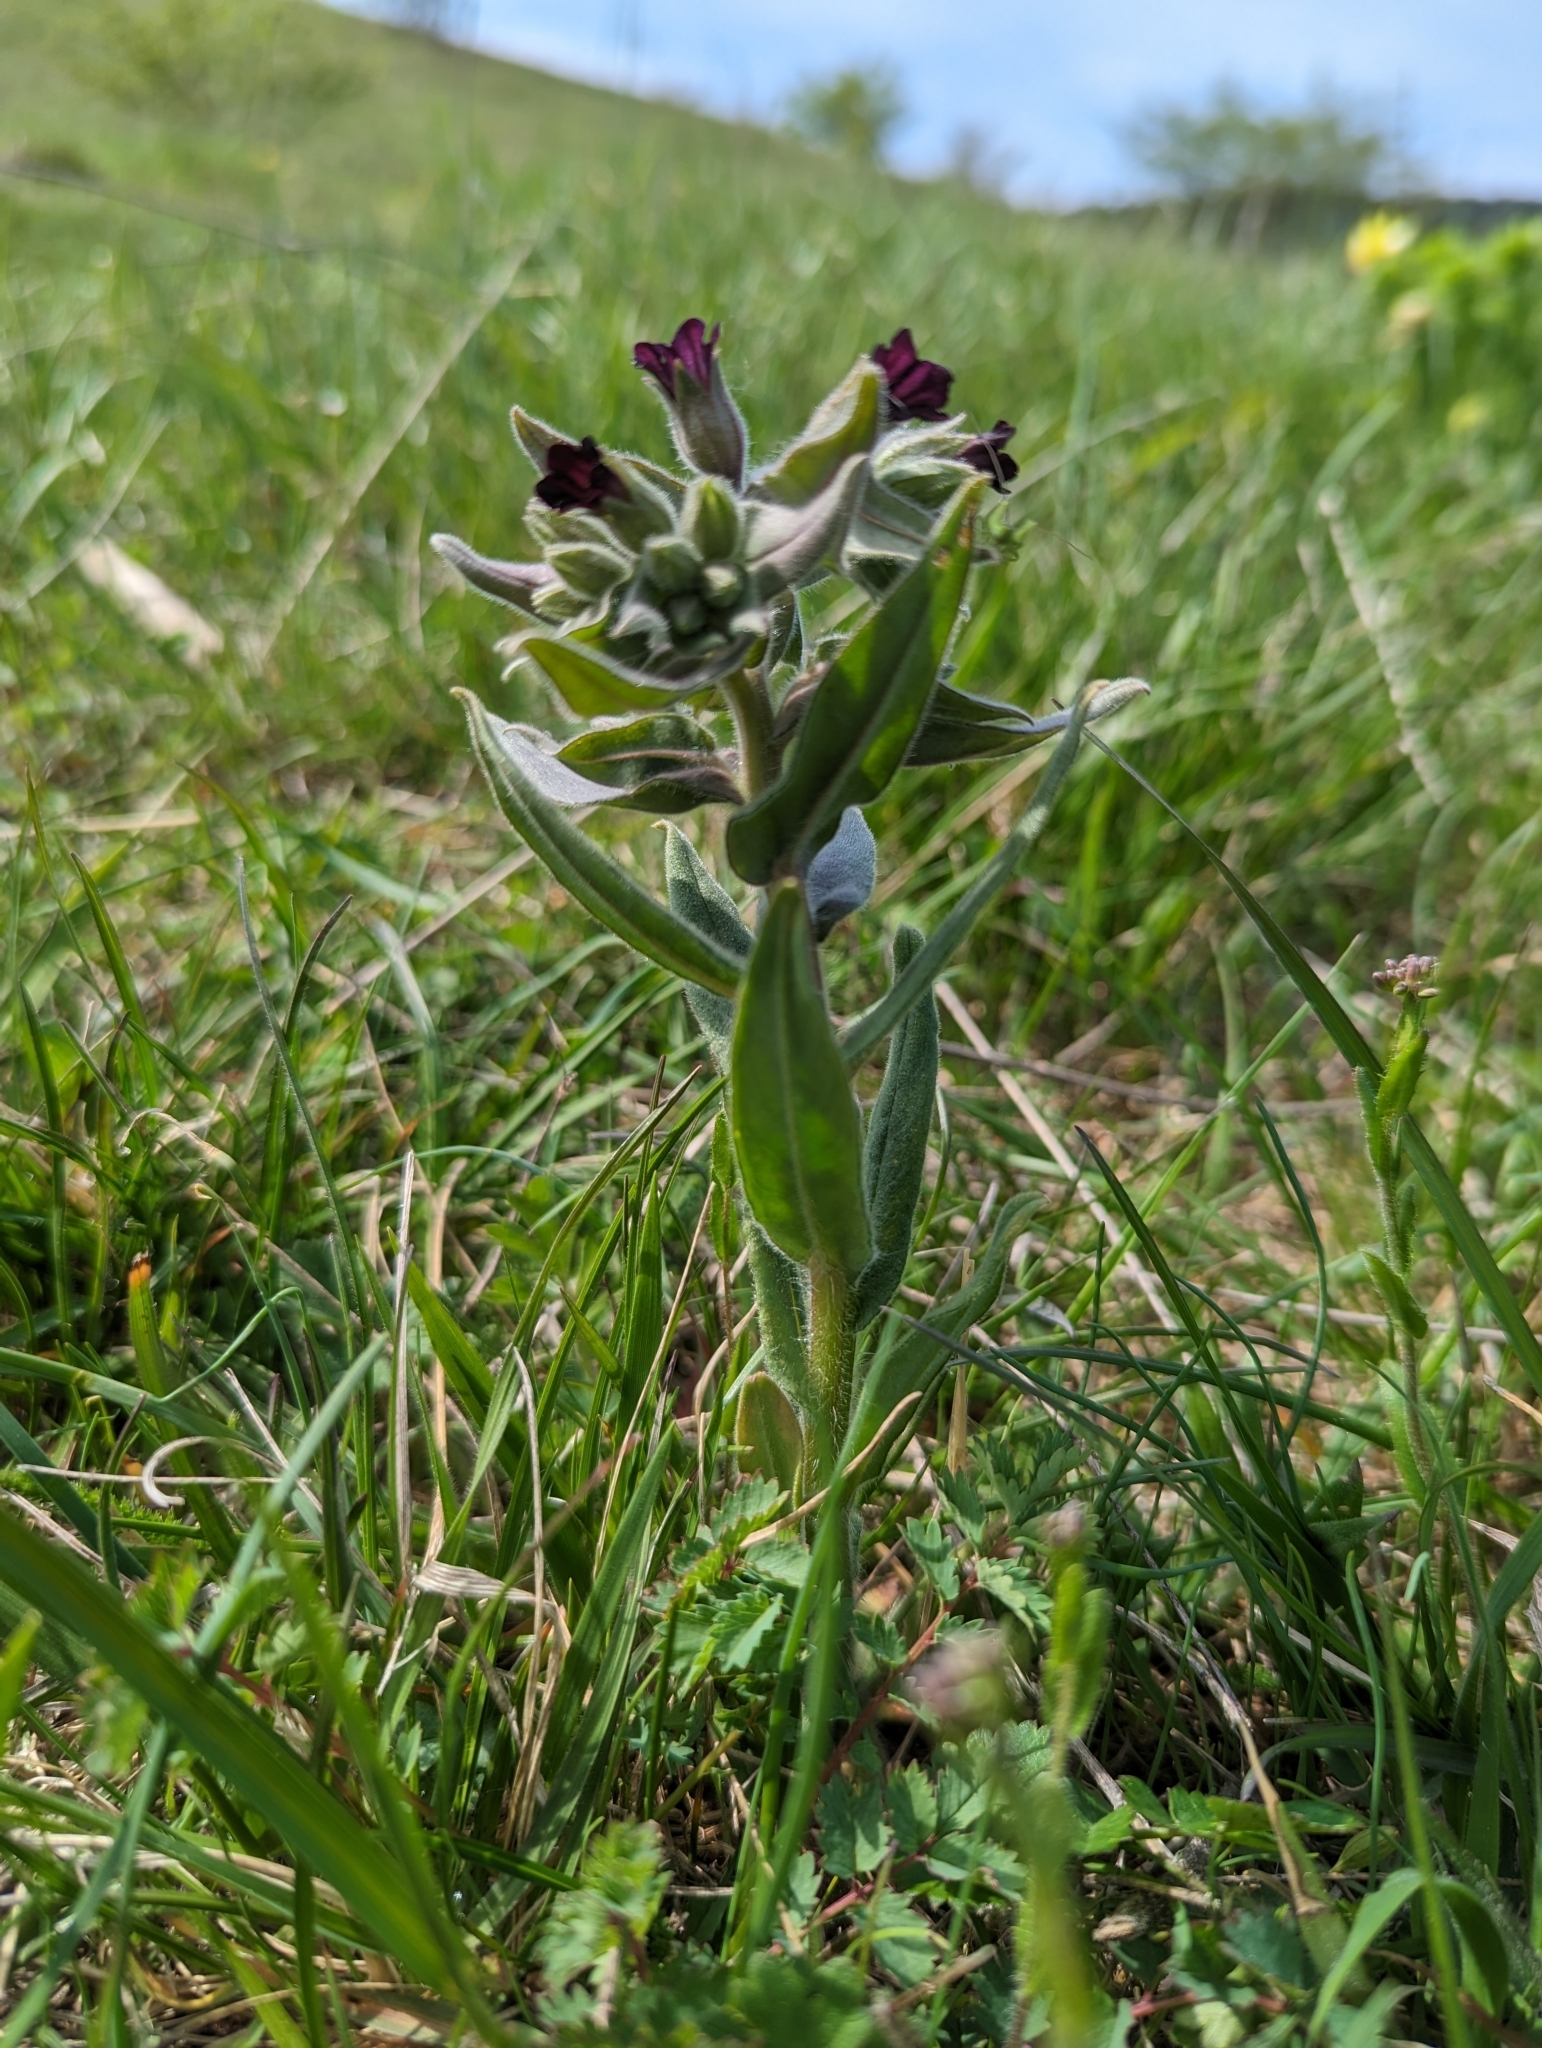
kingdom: Plantae
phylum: Tracheophyta
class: Magnoliopsida
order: Boraginales
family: Boraginaceae
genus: Nonea
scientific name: Nonea pulla
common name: Brown nonea
